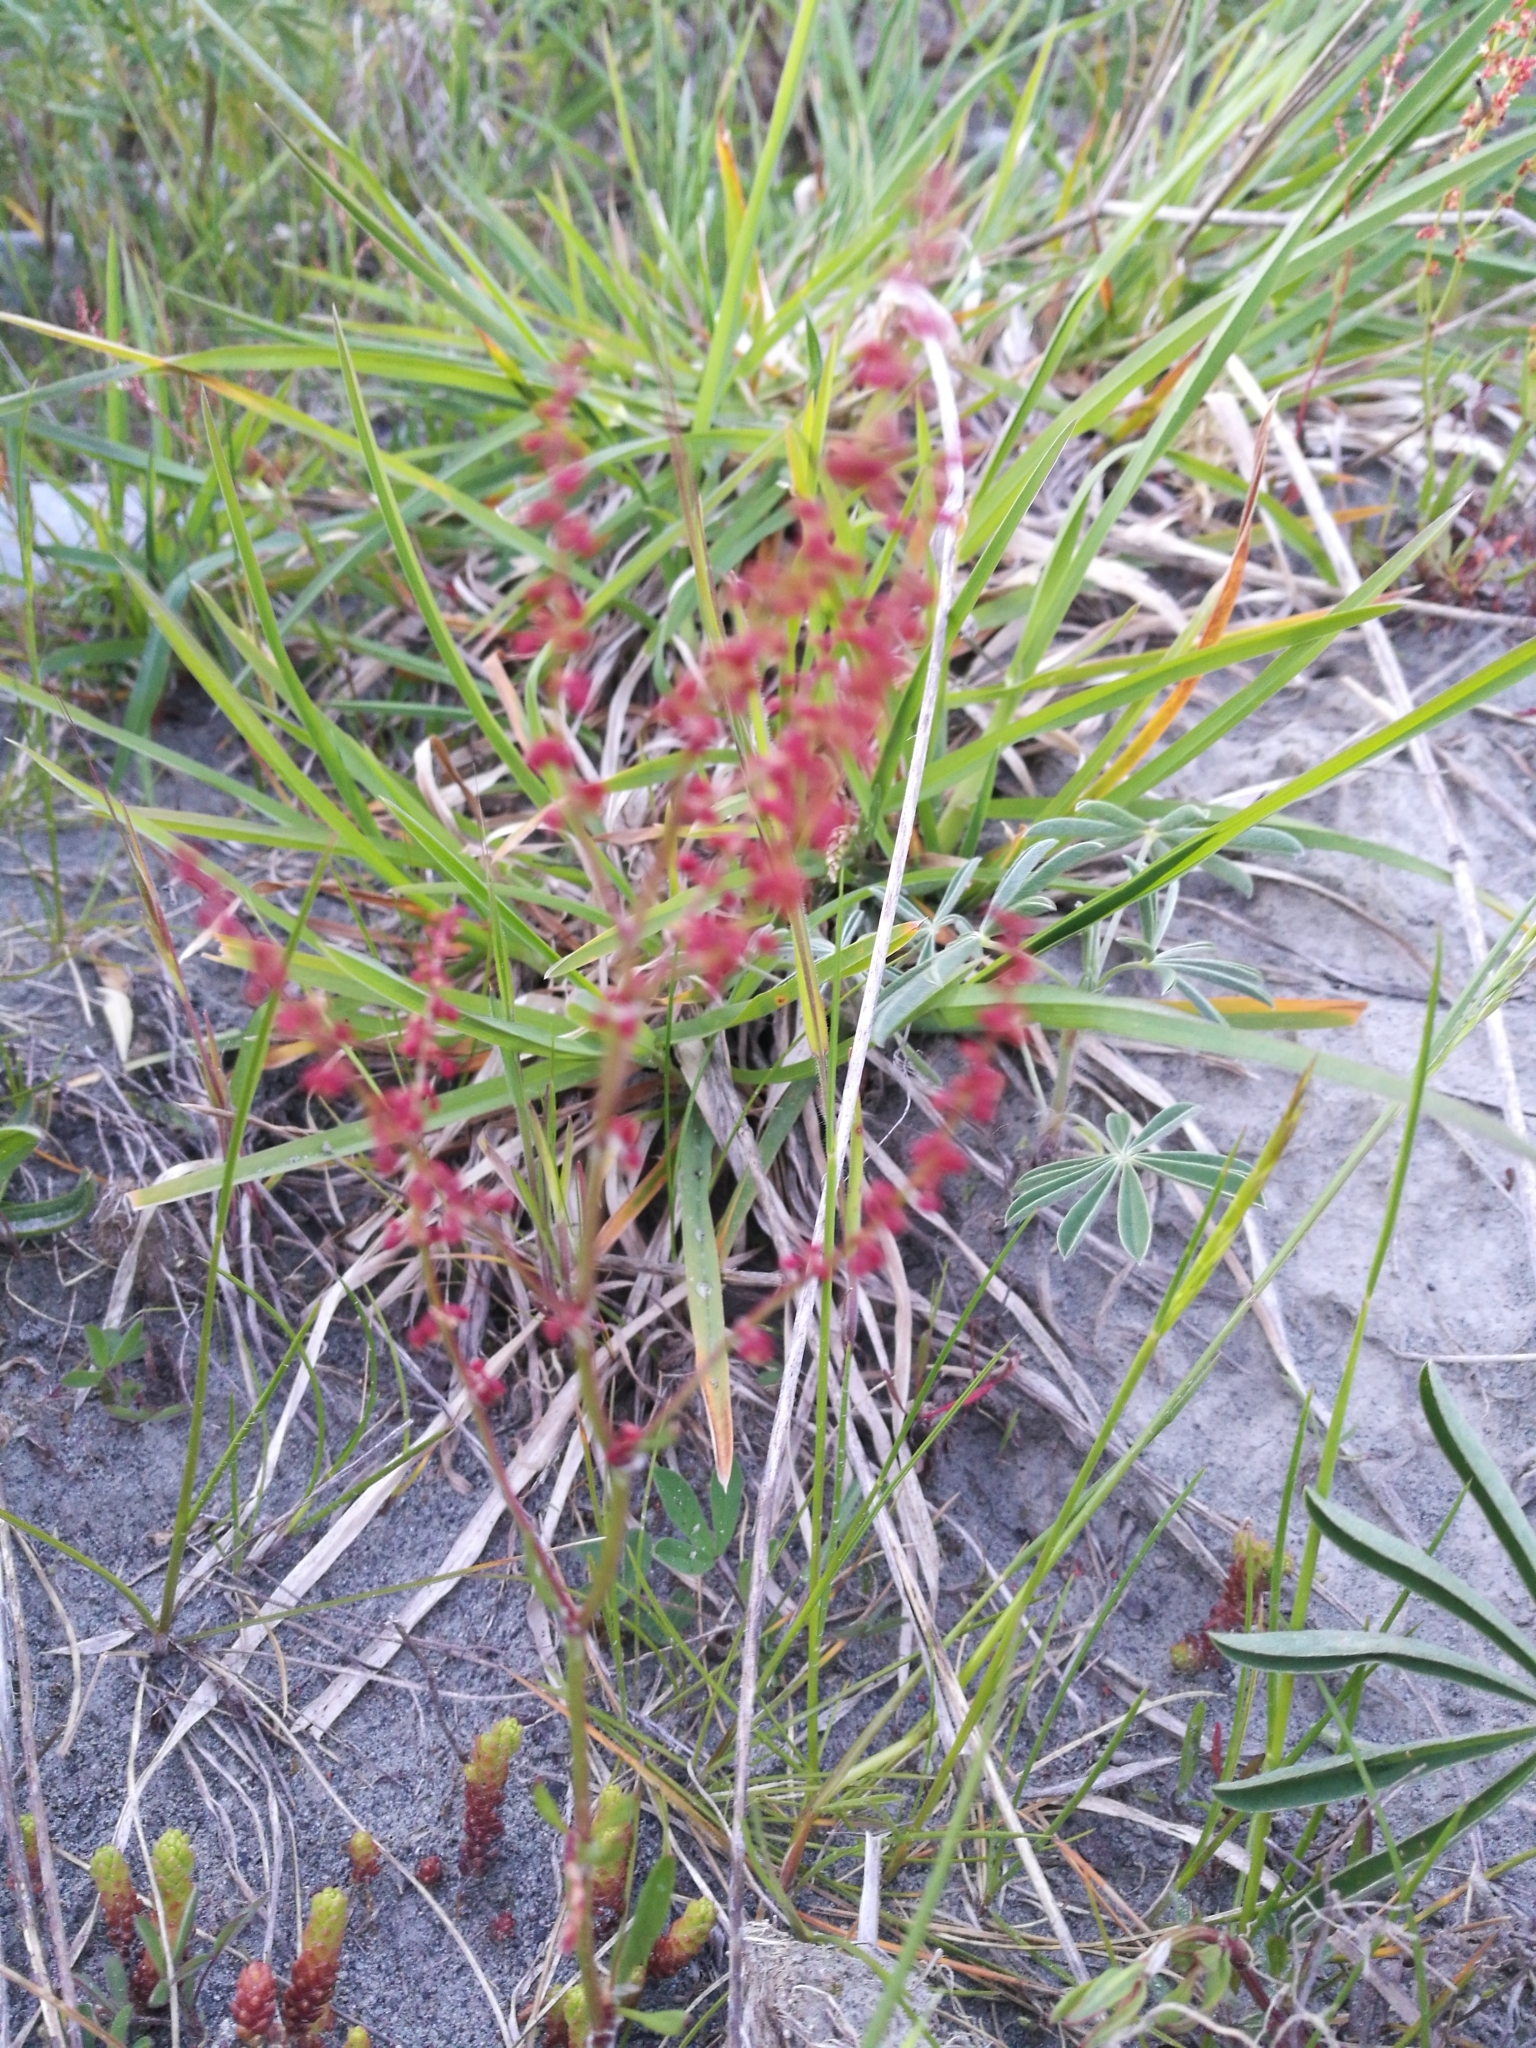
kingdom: Plantae
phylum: Tracheophyta
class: Magnoliopsida
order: Caryophyllales
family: Polygonaceae
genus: Rumex
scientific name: Rumex acetosella
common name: Common sheep sorrel
